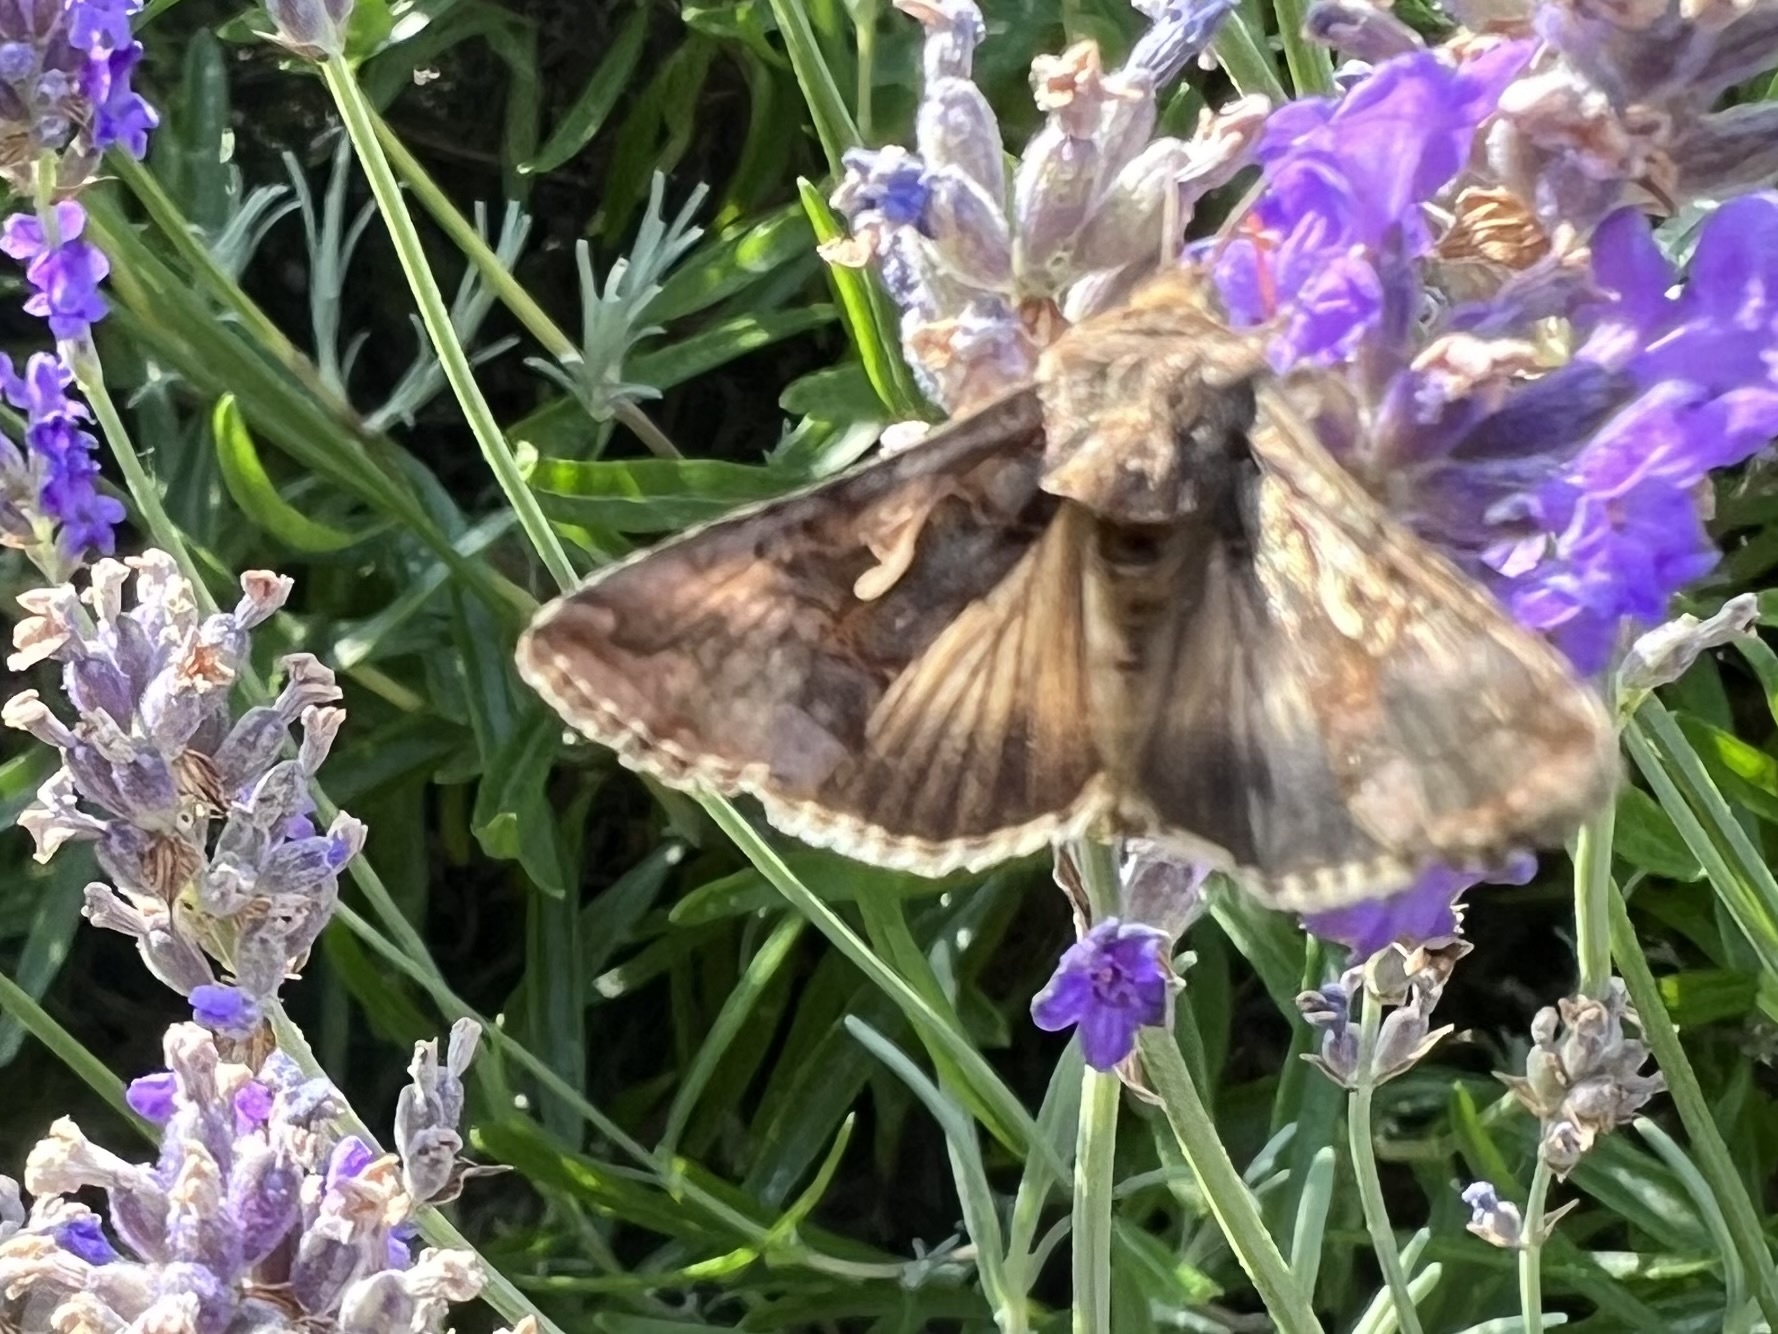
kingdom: Animalia
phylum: Arthropoda
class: Insecta
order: Lepidoptera
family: Noctuidae
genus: Autographa
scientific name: Autographa gamma
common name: Silver y
